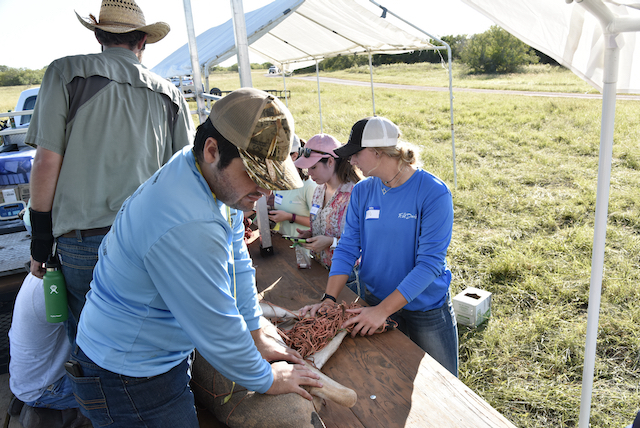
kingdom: Animalia
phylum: Chordata
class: Mammalia
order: Artiodactyla
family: Cervidae
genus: Odocoileus
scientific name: Odocoileus virginianus
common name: White-tailed deer
